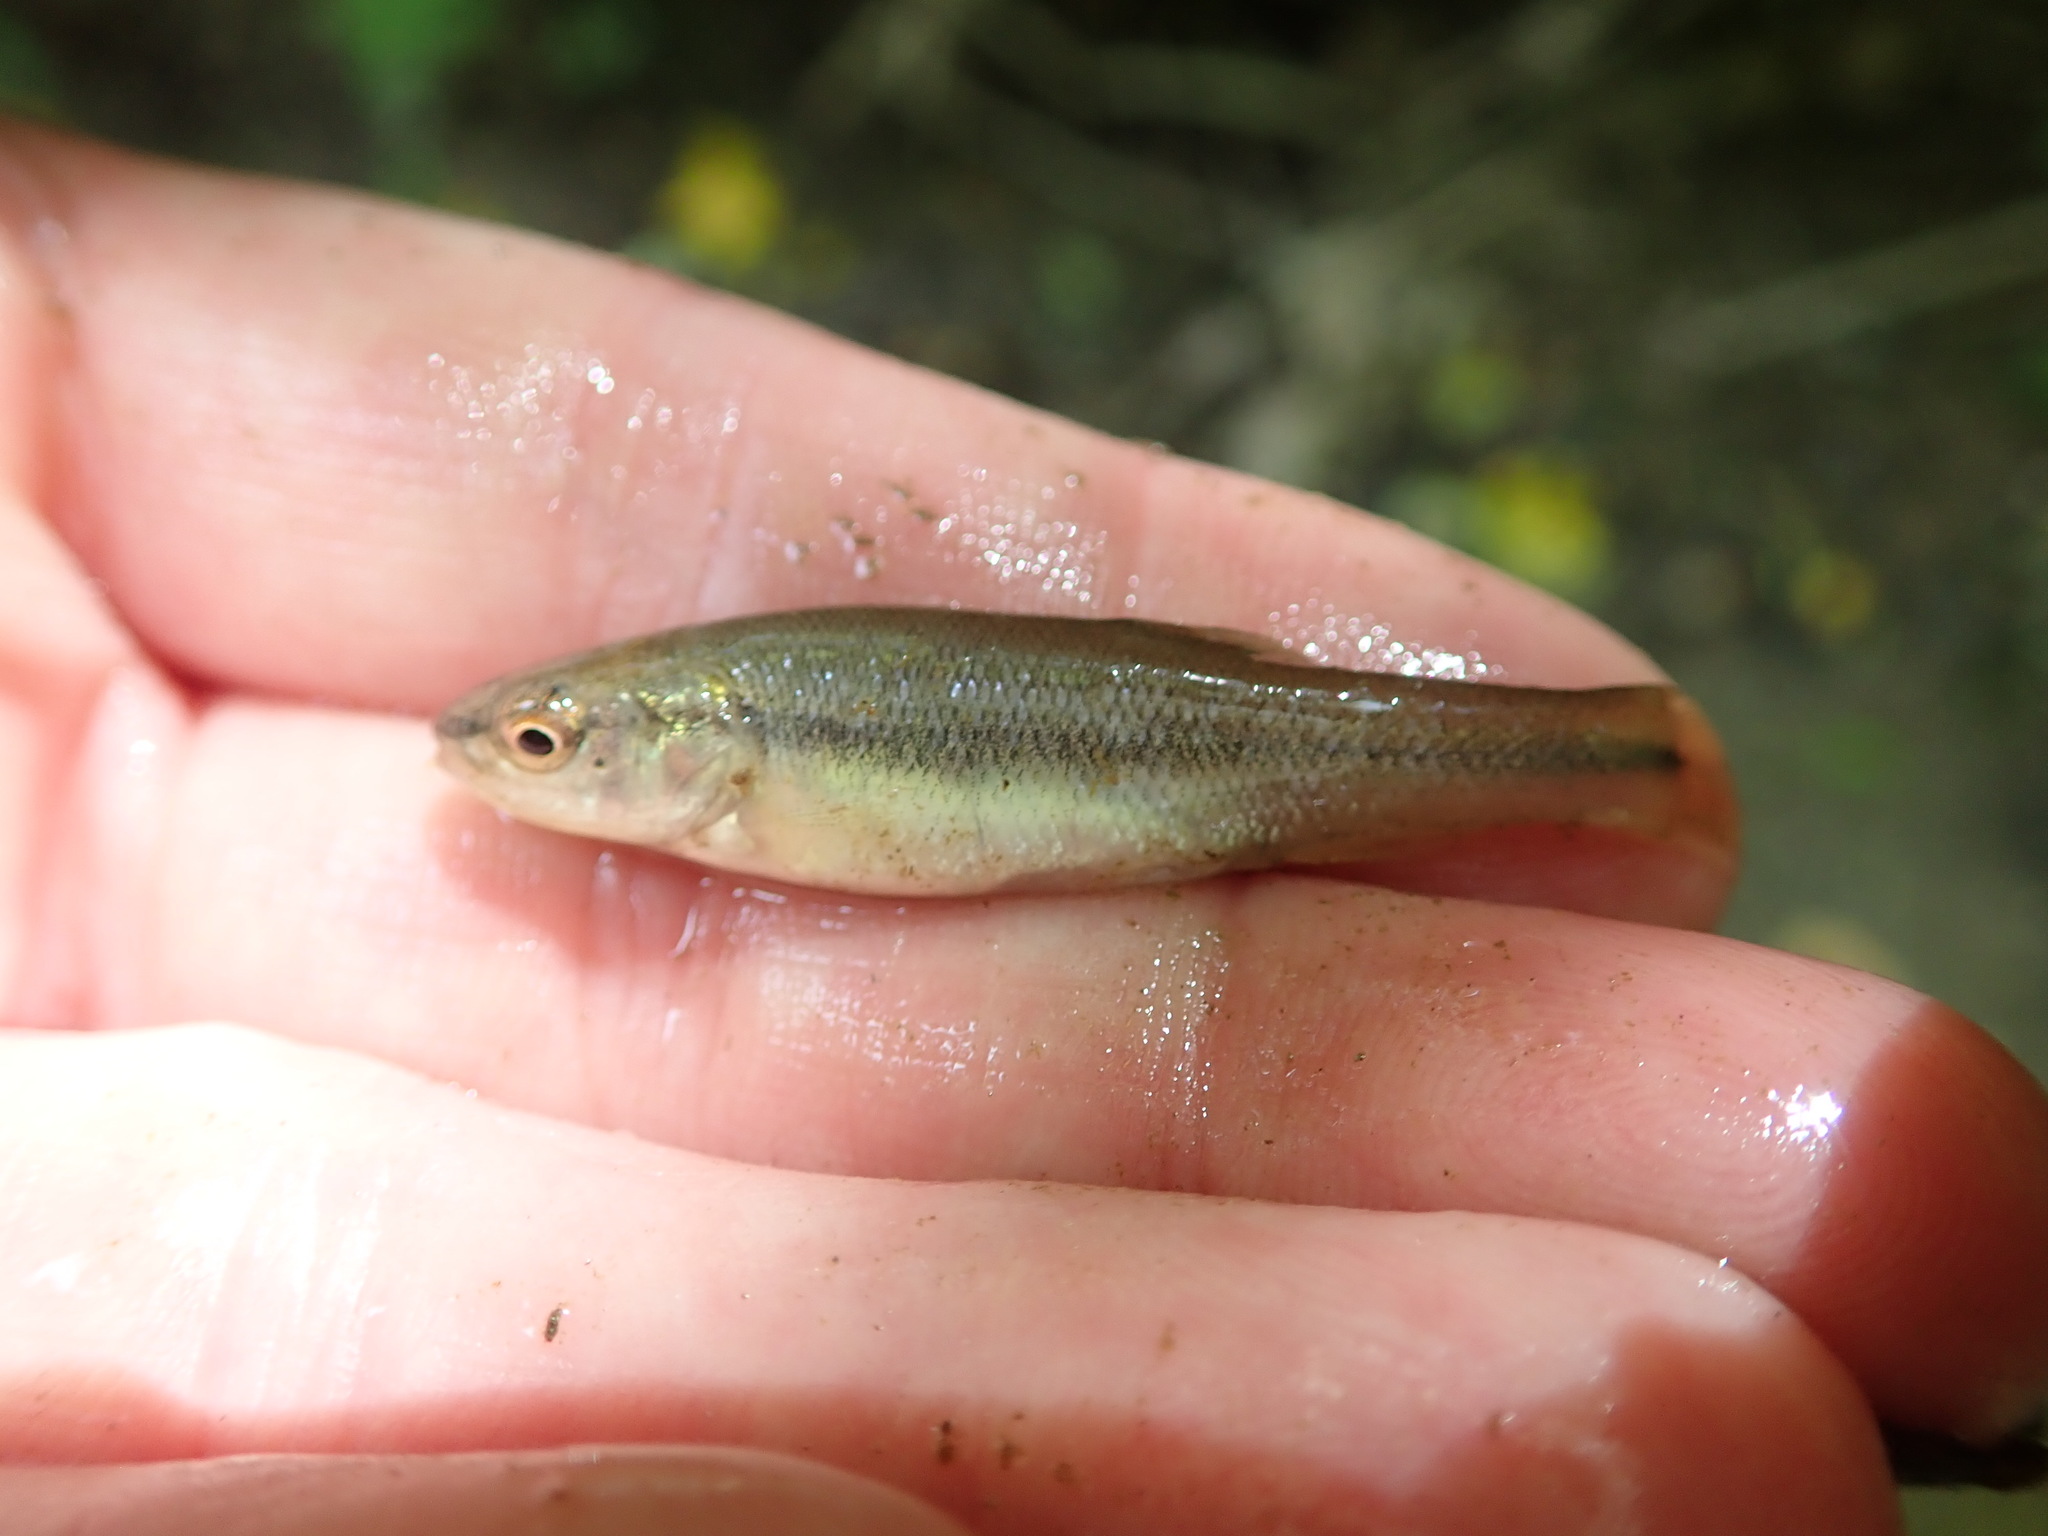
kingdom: Animalia
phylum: Chordata
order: Cypriniformes
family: Cyprinidae
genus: Semotilus
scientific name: Semotilus atromaculatus
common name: Creek chub
